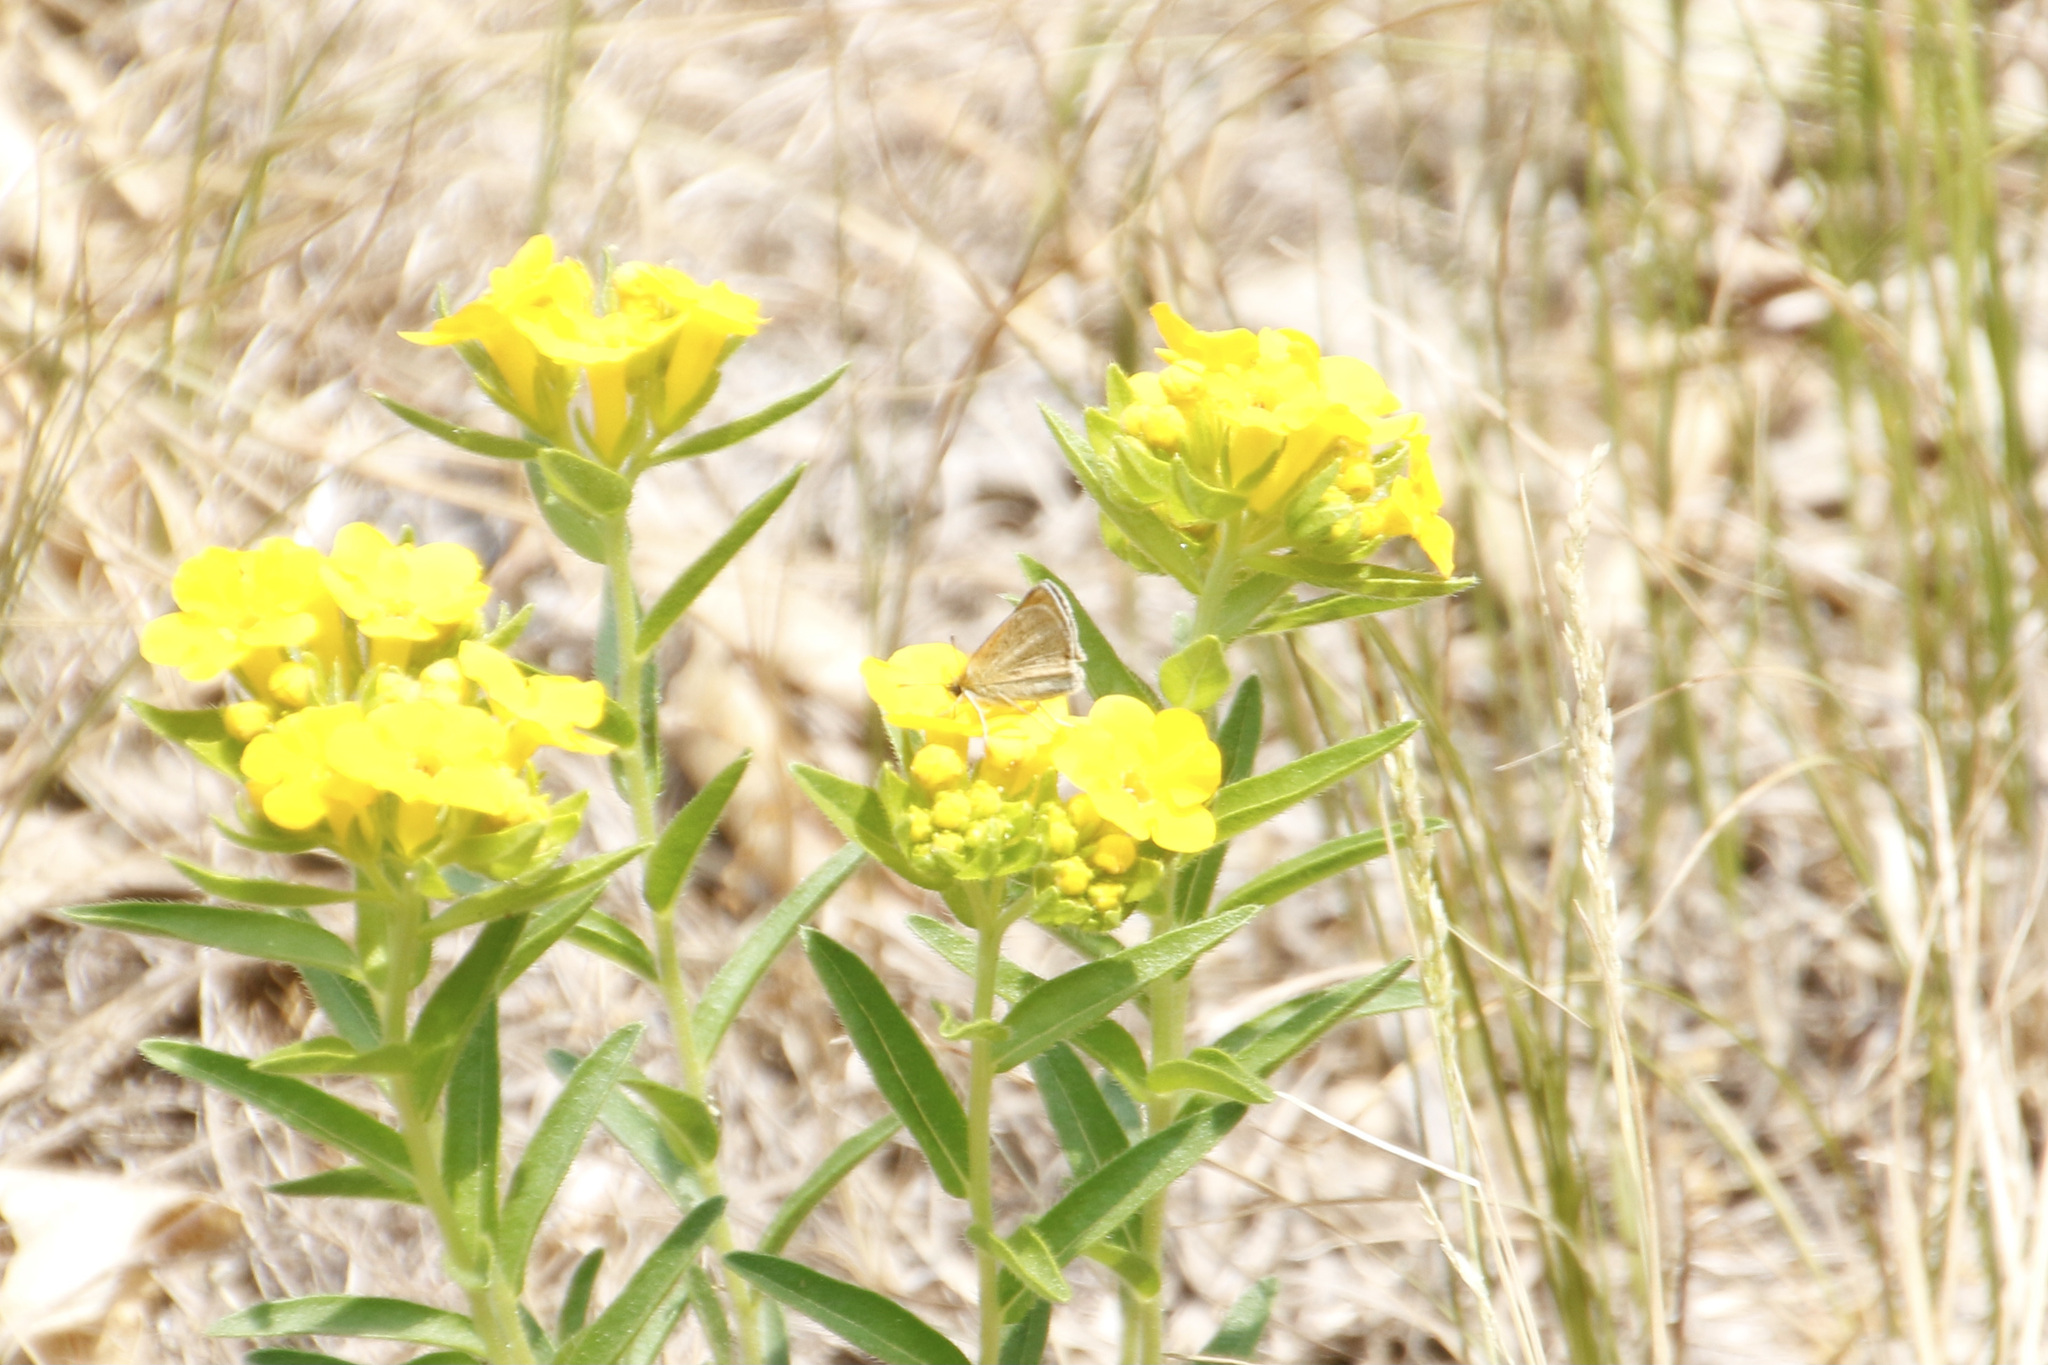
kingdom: Animalia
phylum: Arthropoda
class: Insecta
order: Lepidoptera
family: Hesperiidae
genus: Thymelicus
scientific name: Thymelicus lineola
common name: Essex skipper
